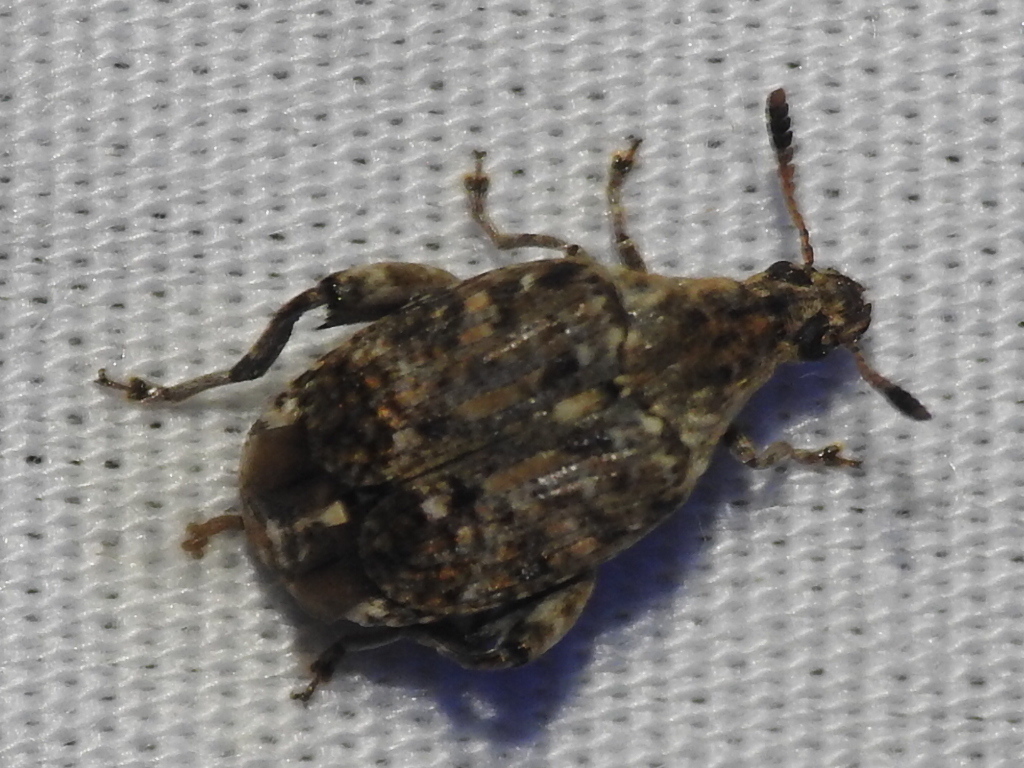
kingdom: Animalia
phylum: Arthropoda
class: Insecta
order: Coleoptera
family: Chrysomelidae
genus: Merobruchus
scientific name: Merobruchus major
